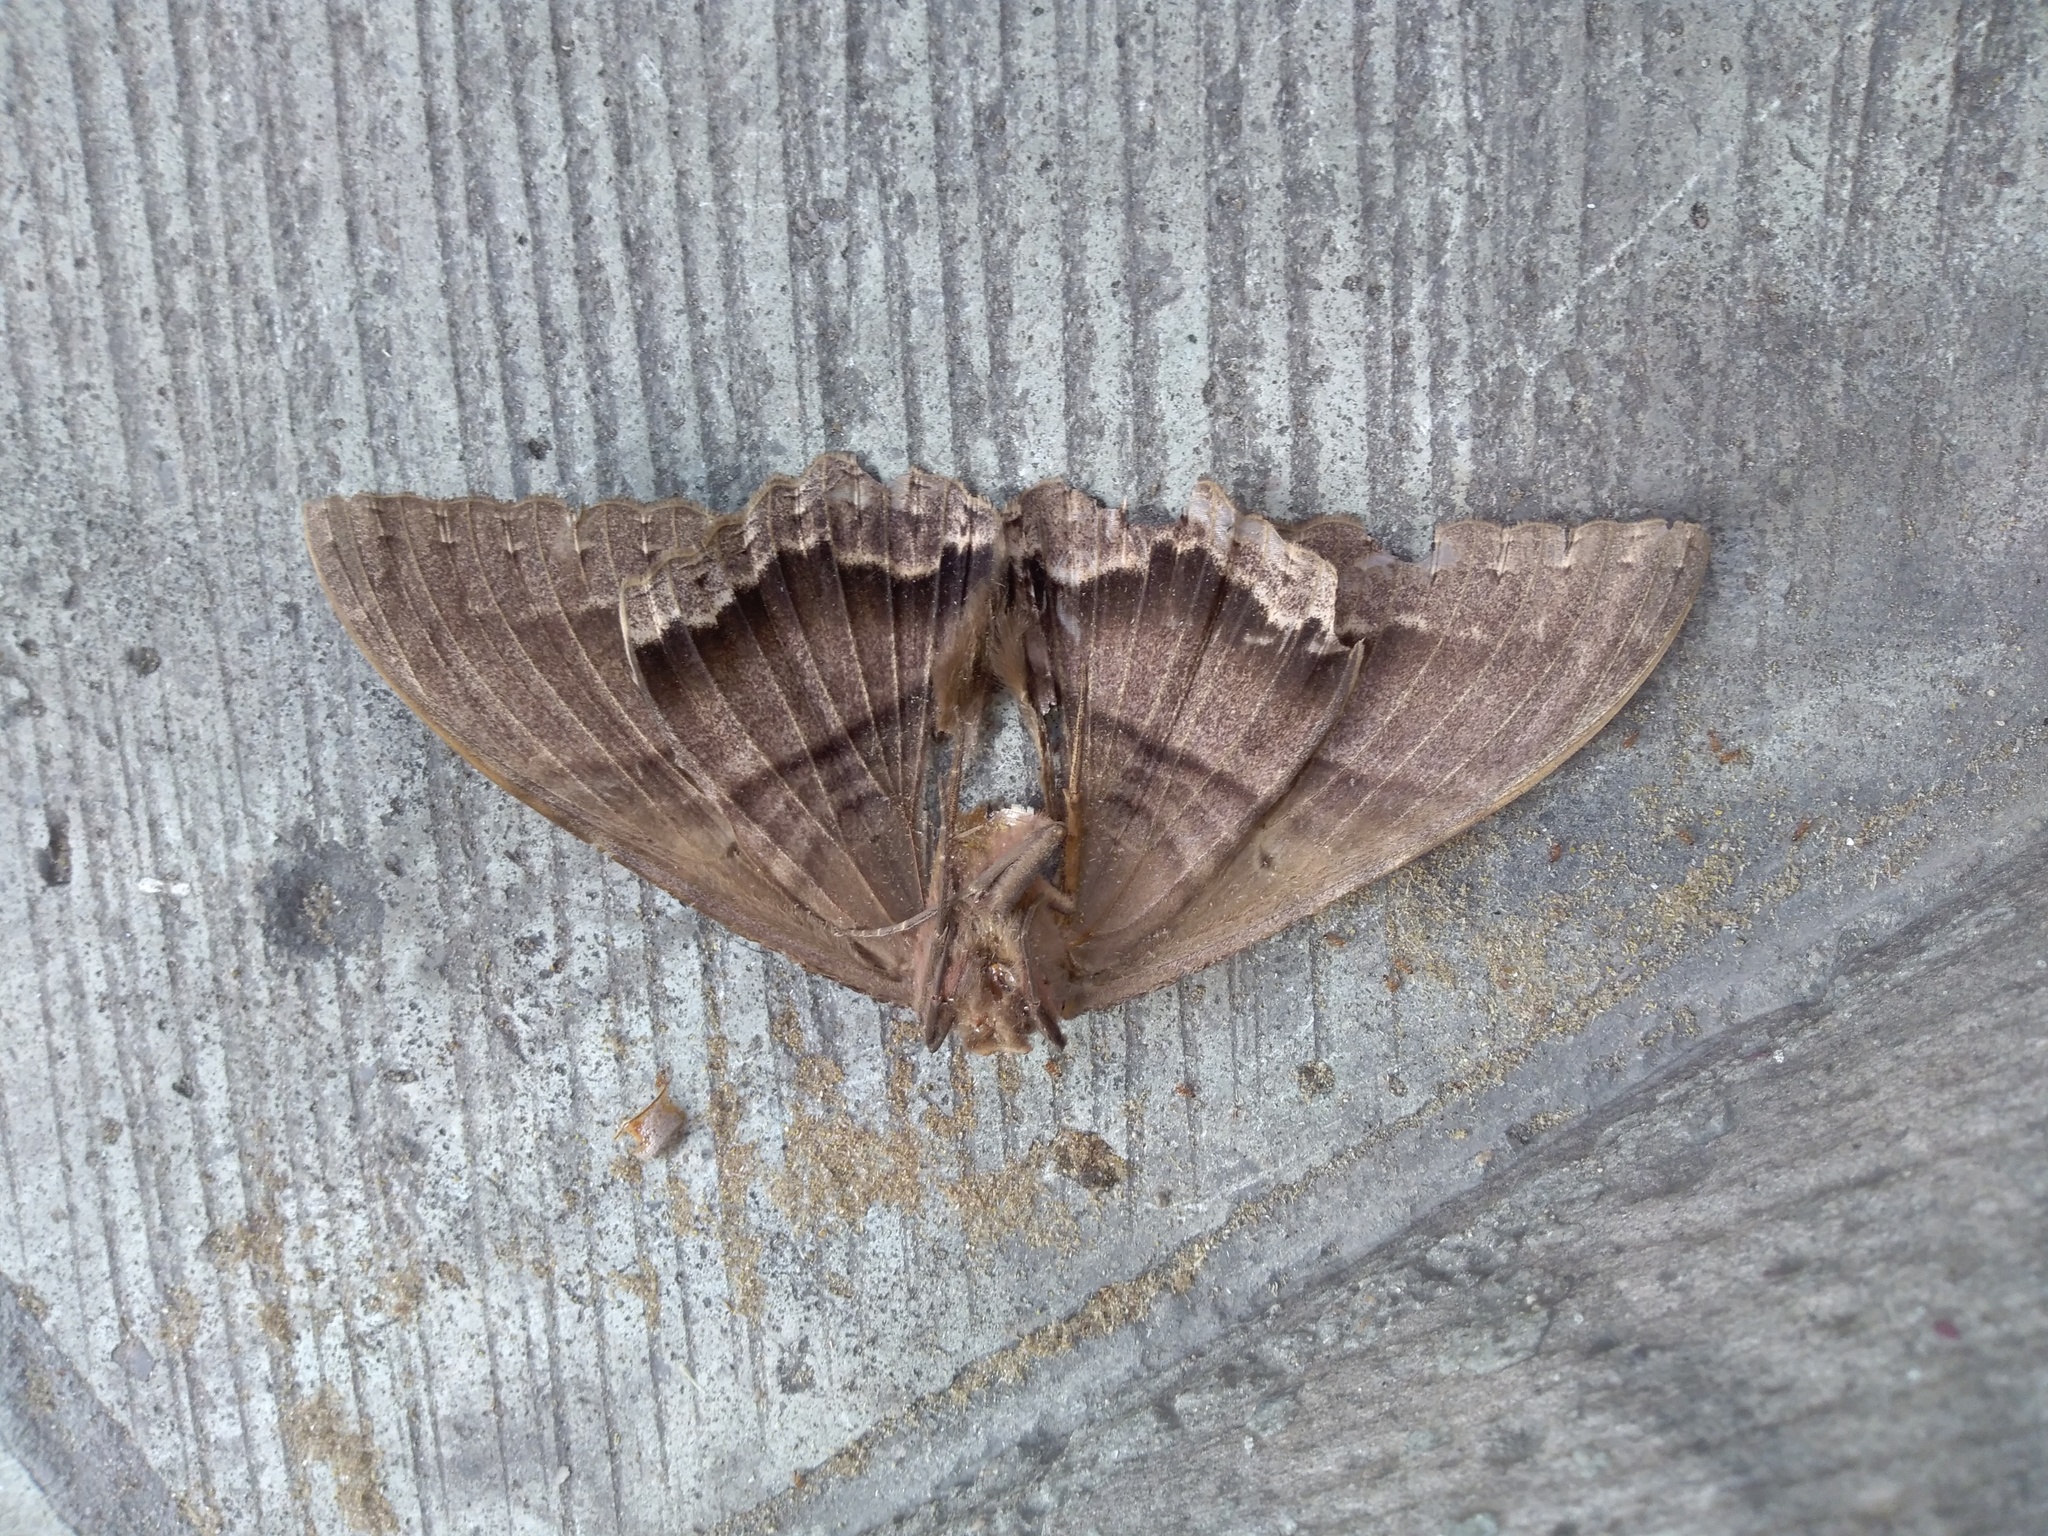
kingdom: Animalia
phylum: Arthropoda
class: Insecta
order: Lepidoptera
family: Erebidae
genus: Ascalapha
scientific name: Ascalapha odorata
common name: Black witch
